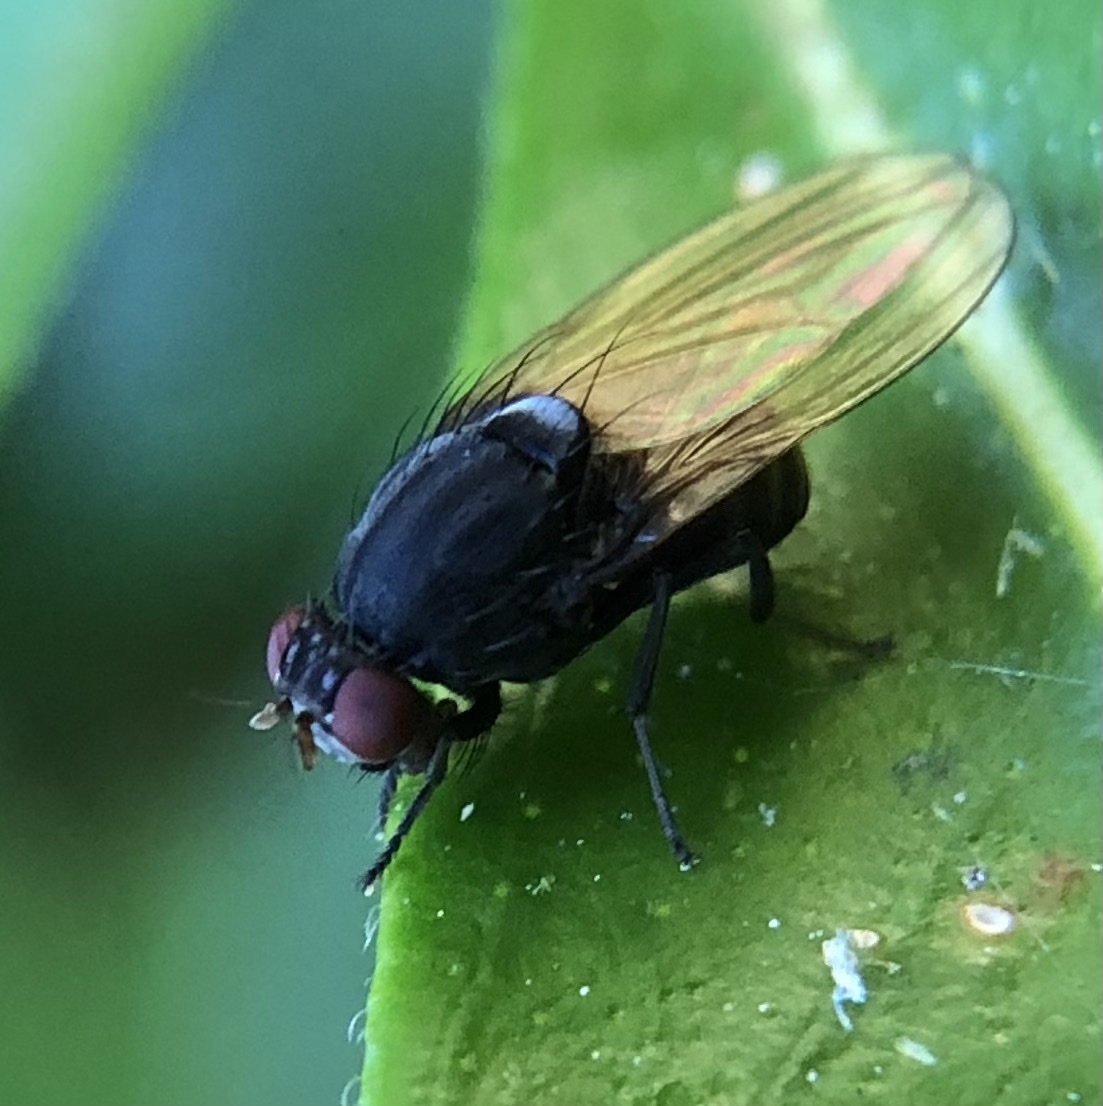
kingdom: Animalia
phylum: Arthropoda
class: Insecta
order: Diptera
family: Lauxaniidae
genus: Minettia
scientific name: Minettia longipennis
